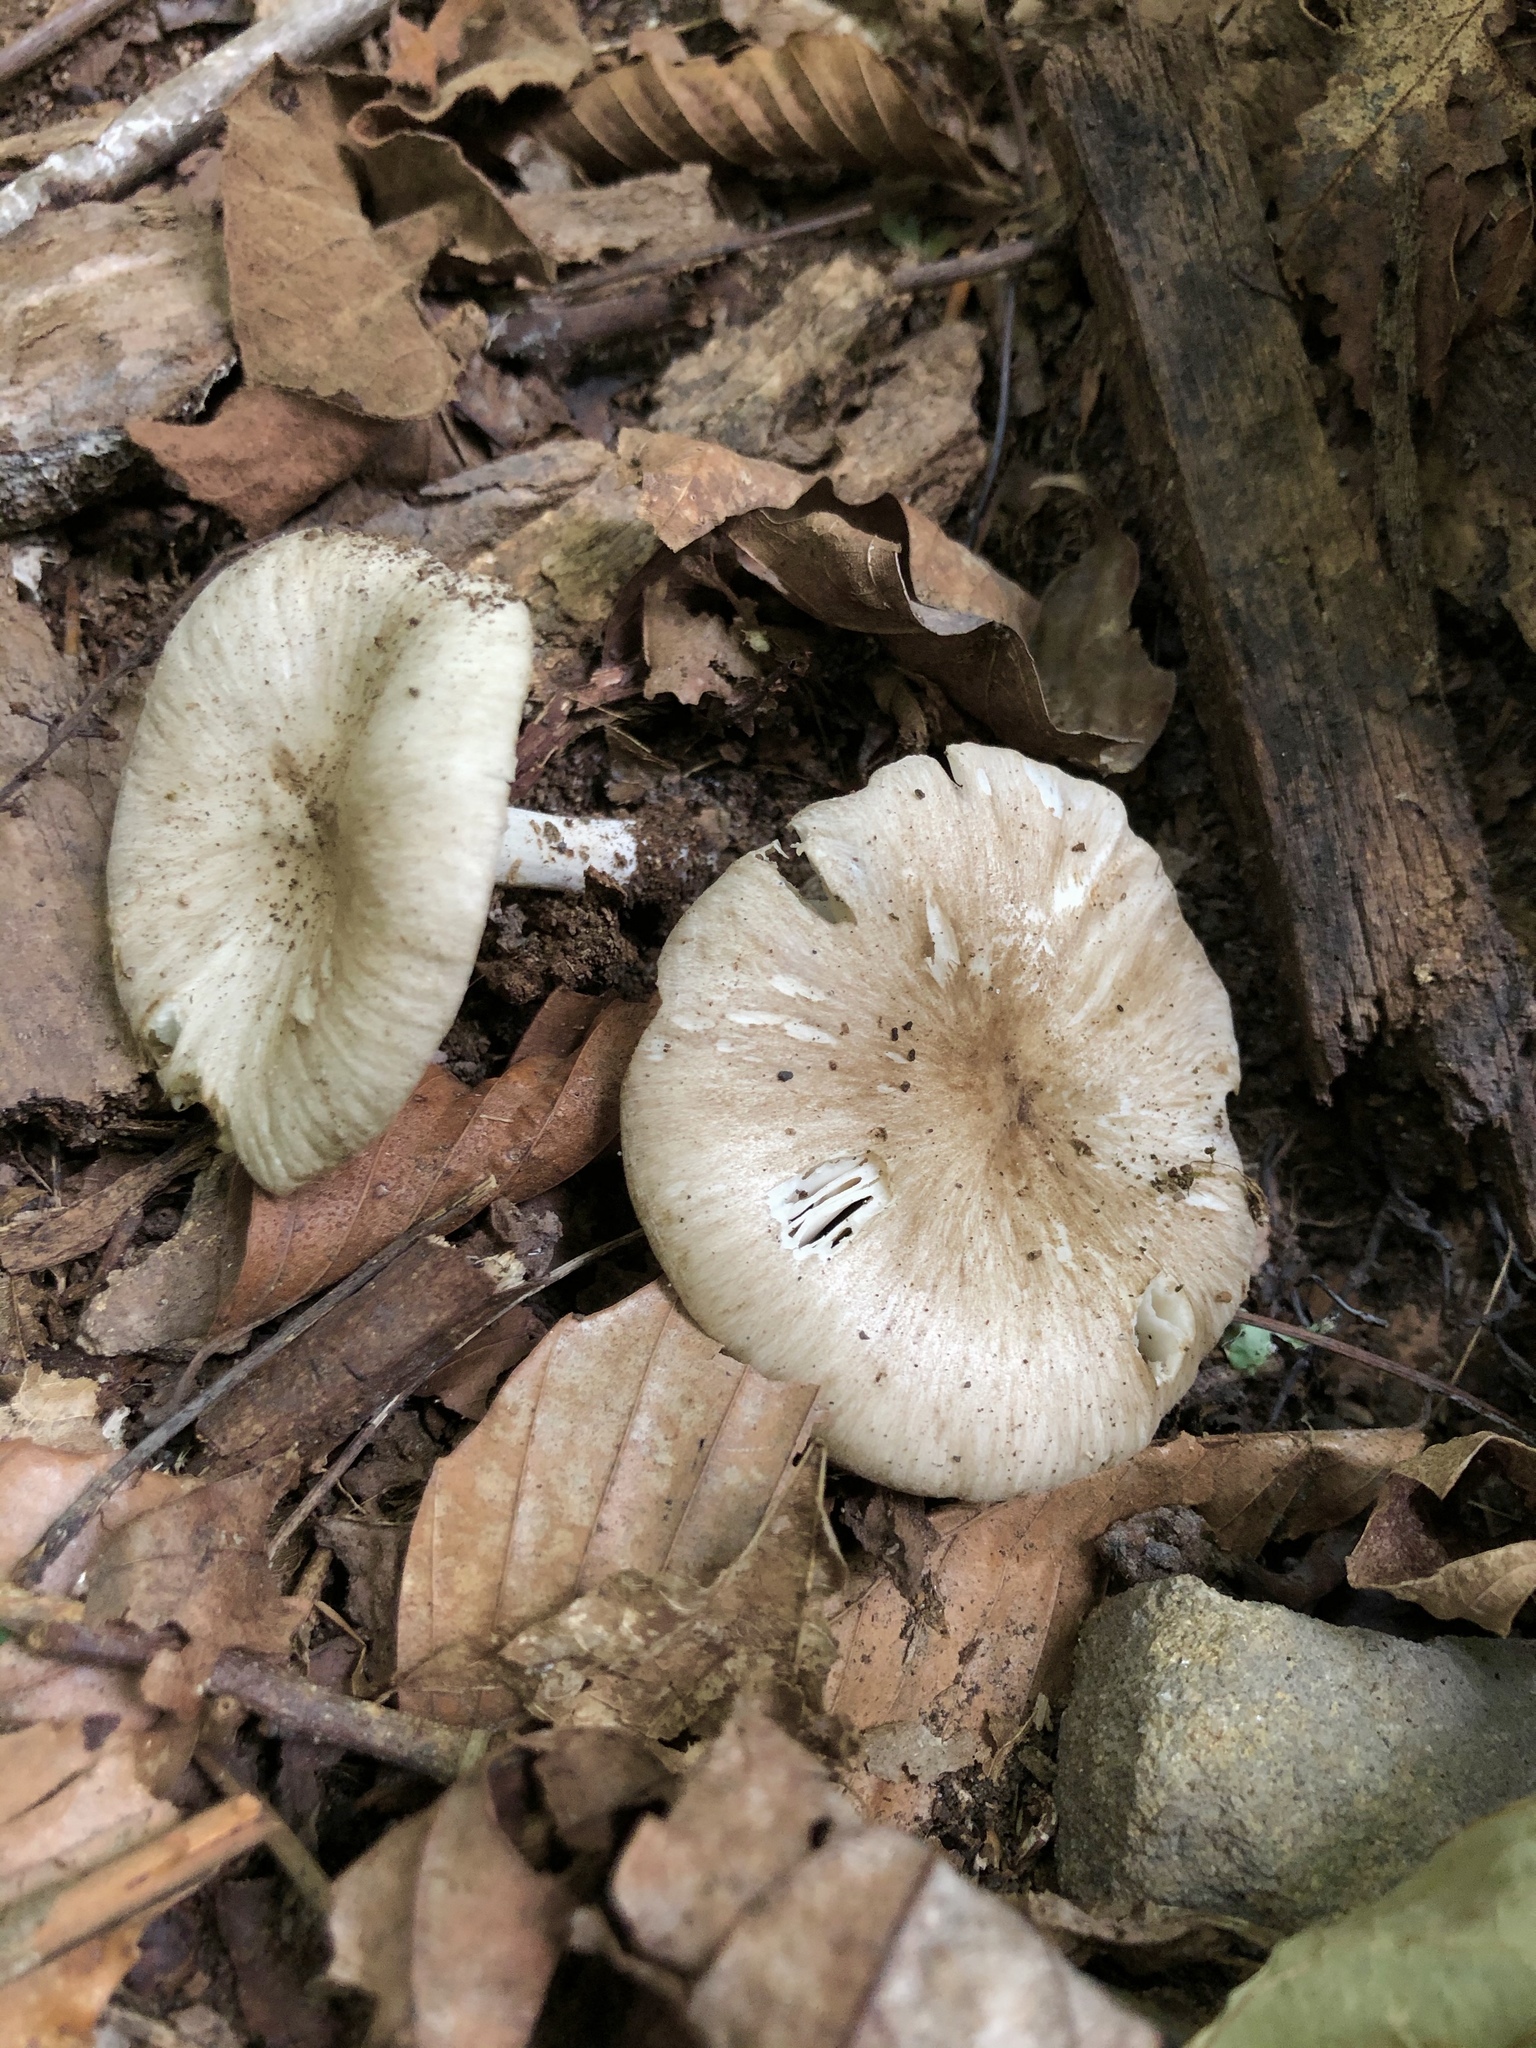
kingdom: Fungi
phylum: Basidiomycota
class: Agaricomycetes
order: Agaricales
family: Tricholomataceae
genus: Megacollybia
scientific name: Megacollybia rodmanii
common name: Eastern american platterful mushroom
